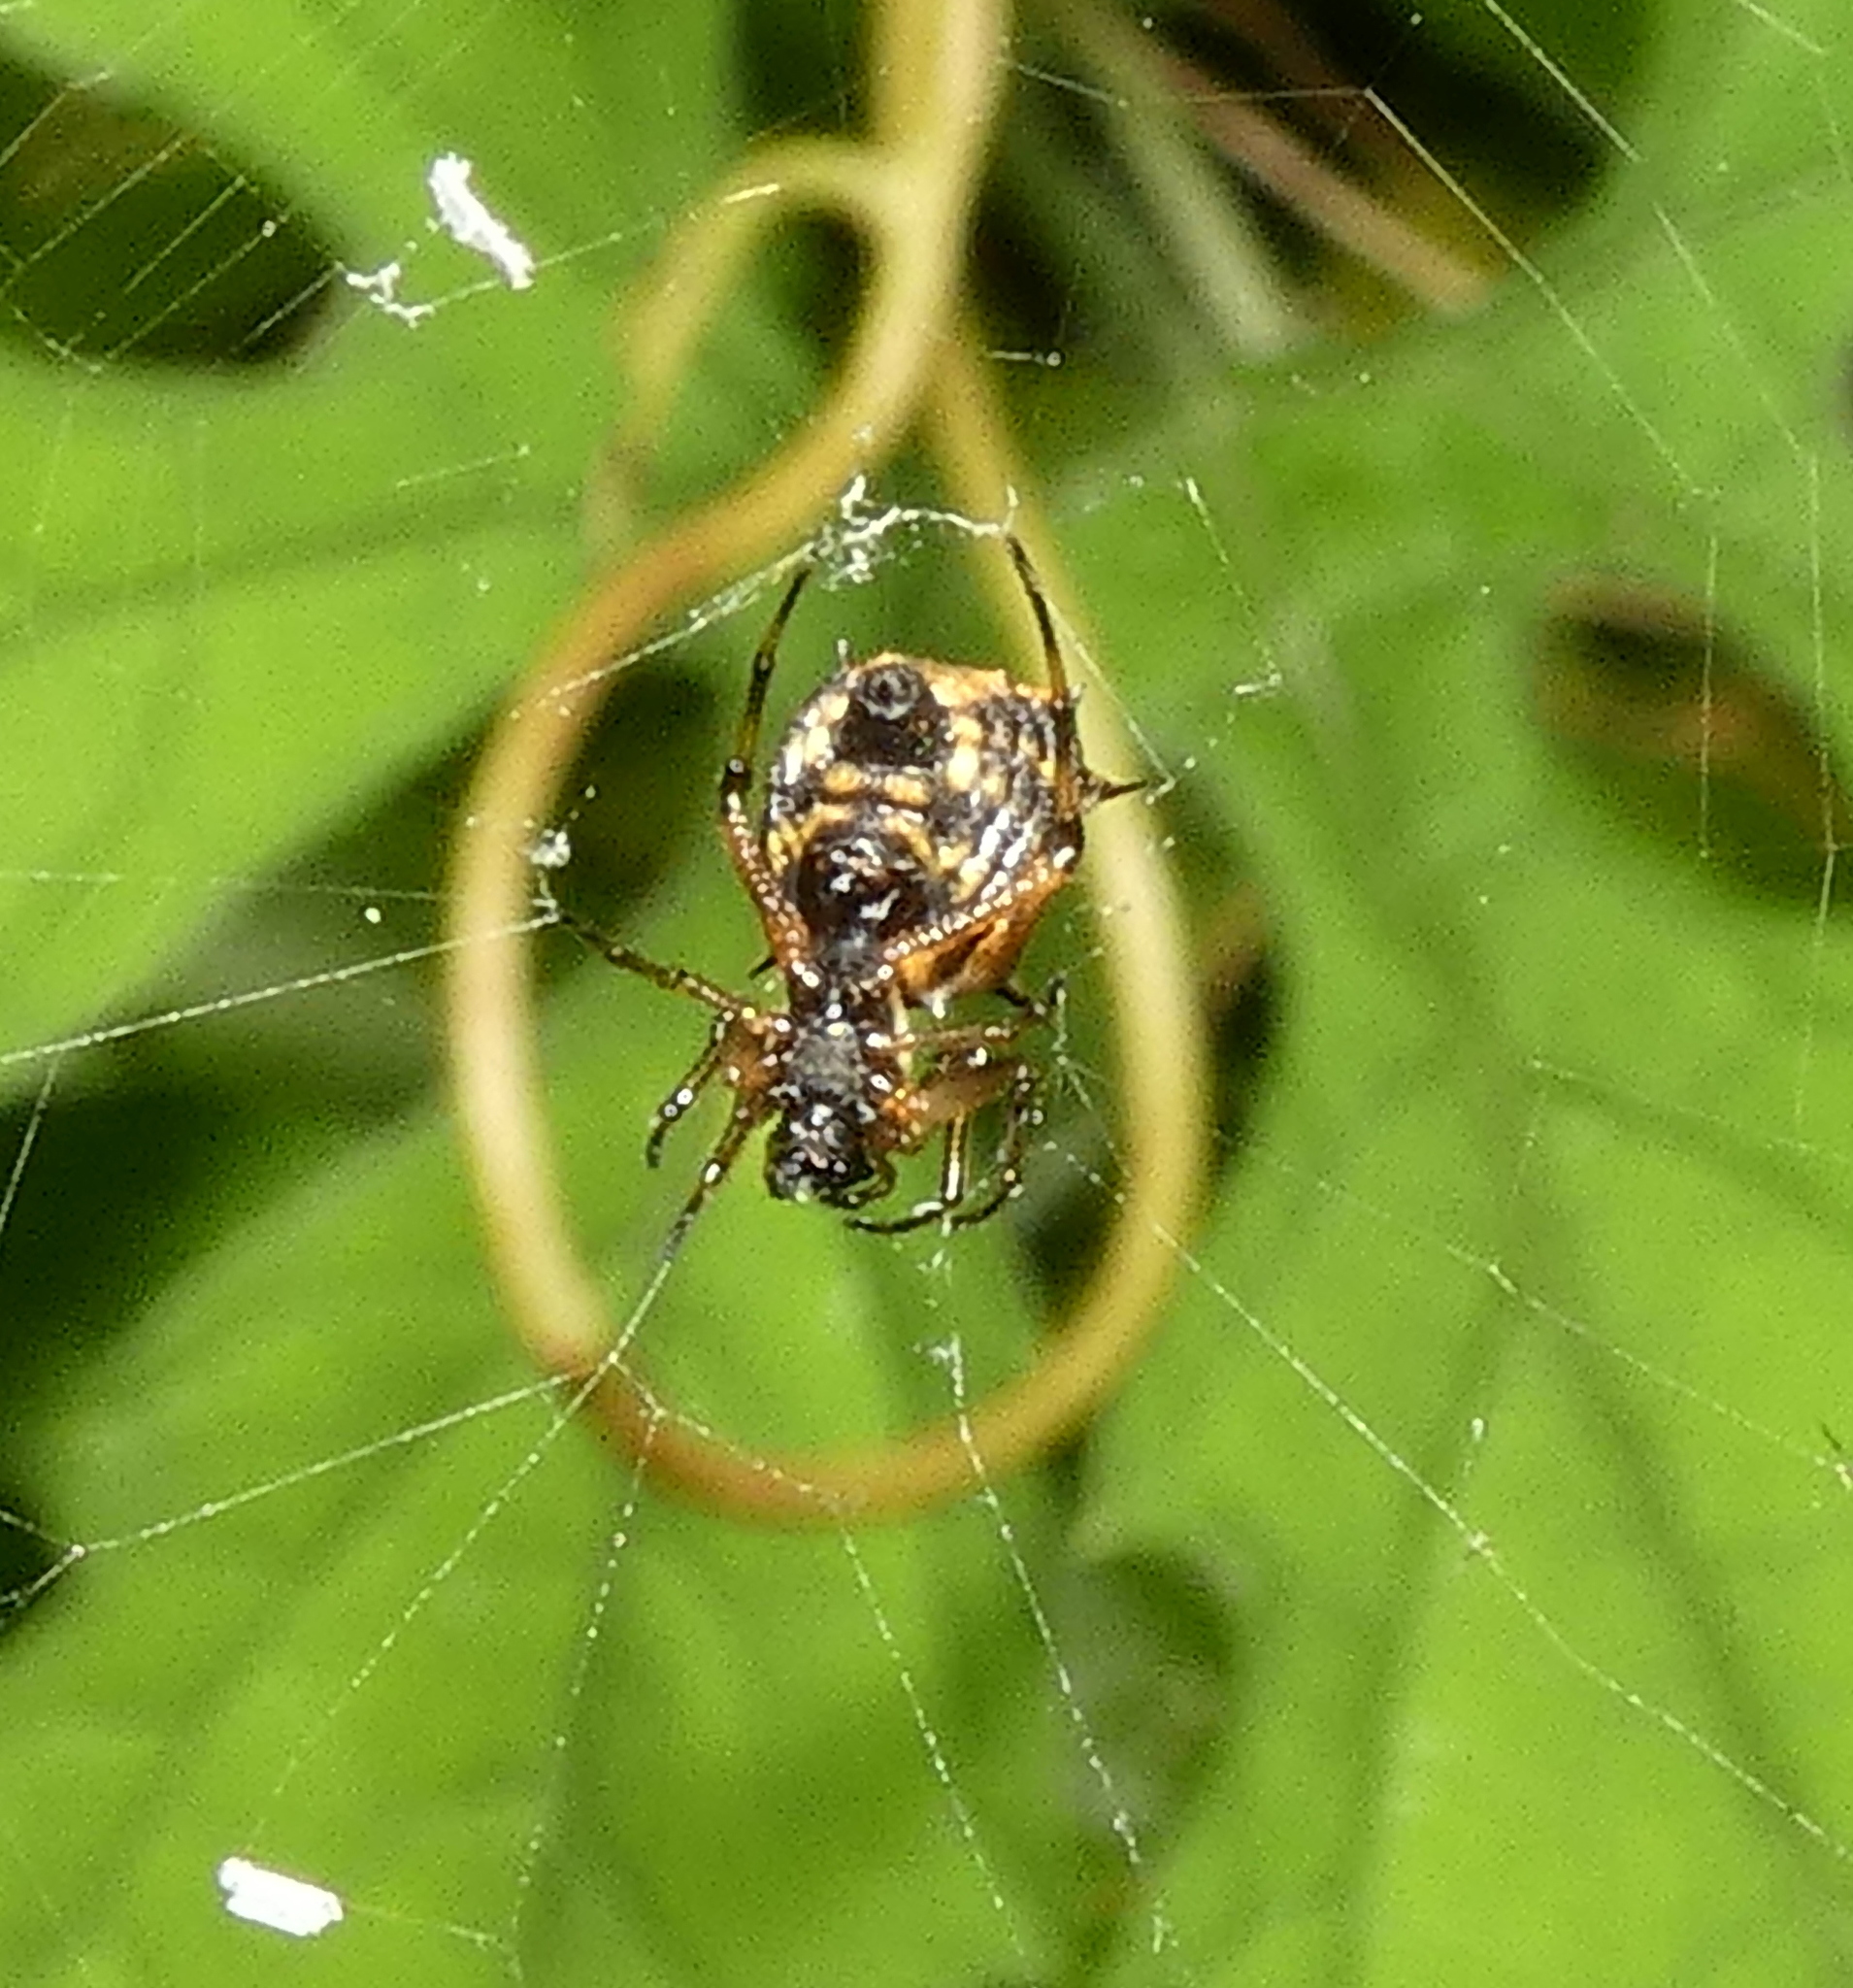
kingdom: Animalia
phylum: Arthropoda
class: Arachnida
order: Araneae
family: Araneidae
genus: Micrathena
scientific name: Micrathena picta
